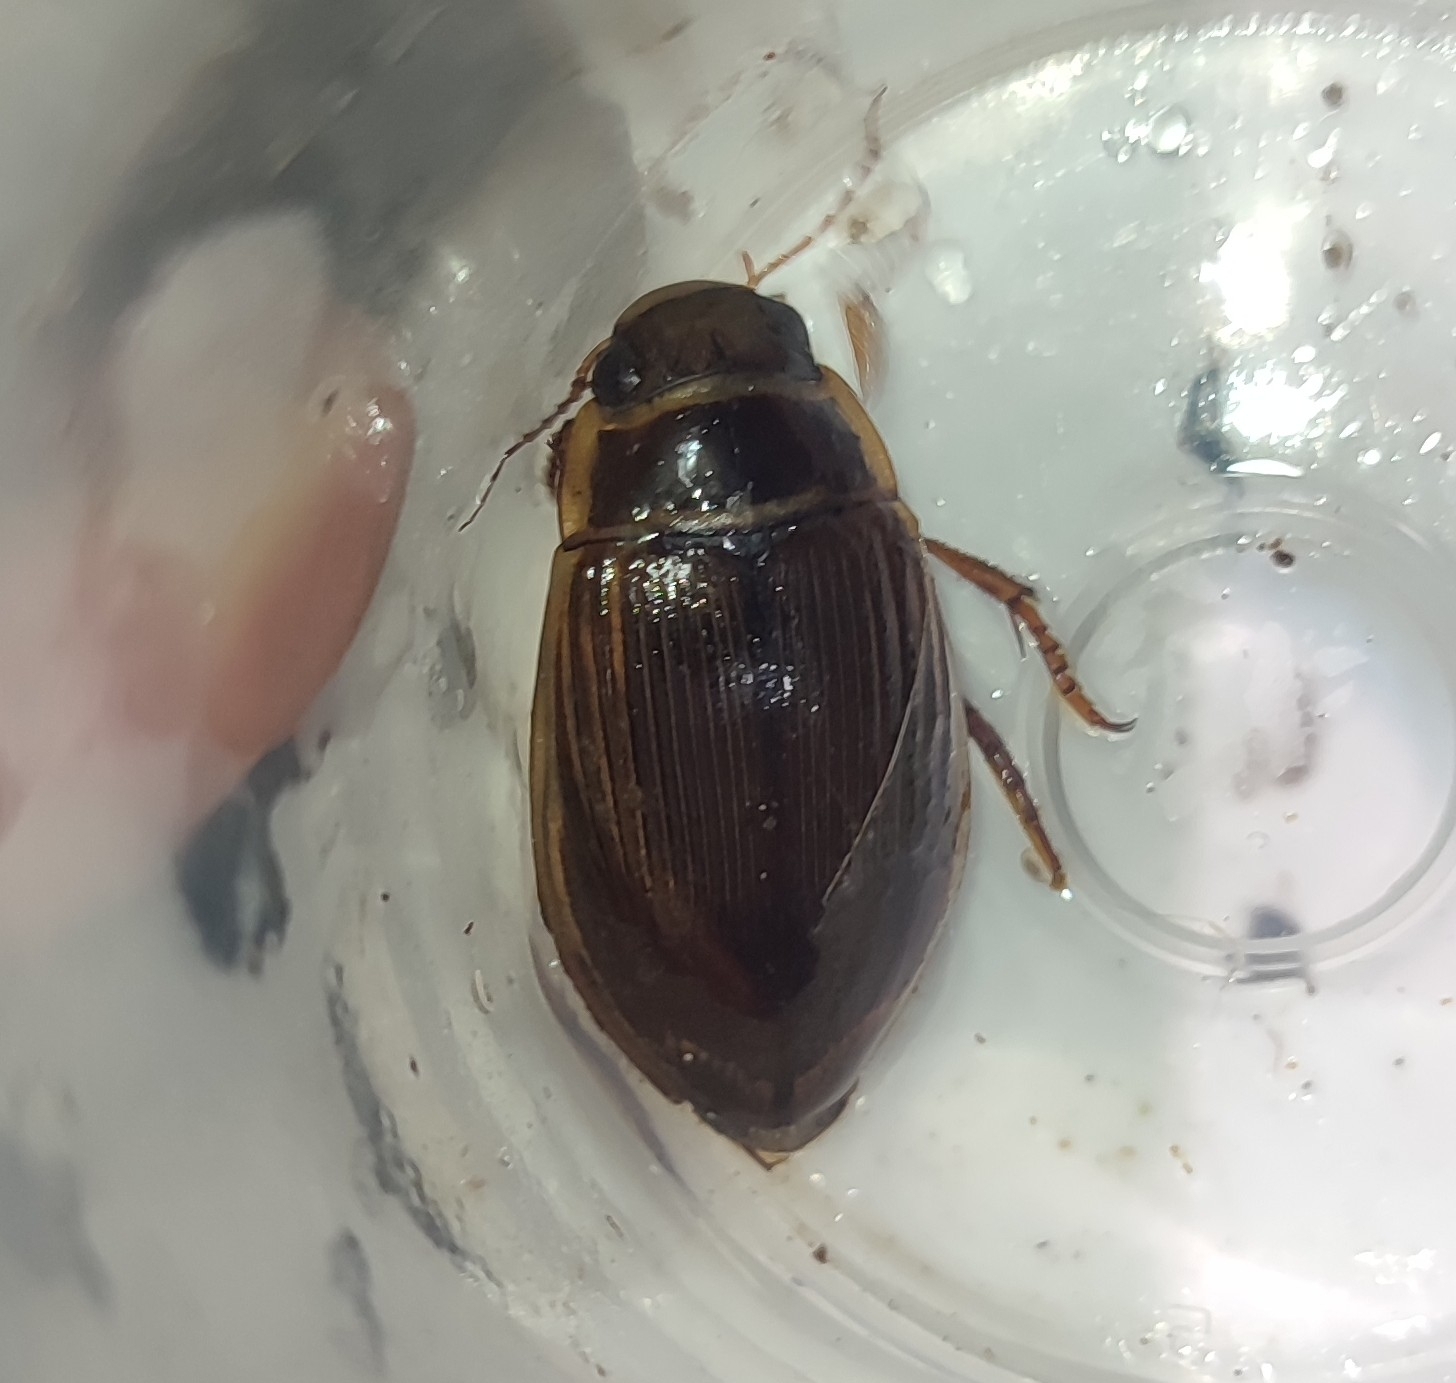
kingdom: Animalia
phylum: Arthropoda
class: Insecta
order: Coleoptera
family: Dytiscidae
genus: Dytiscus
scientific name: Dytiscus marginalis
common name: Great water beetle
